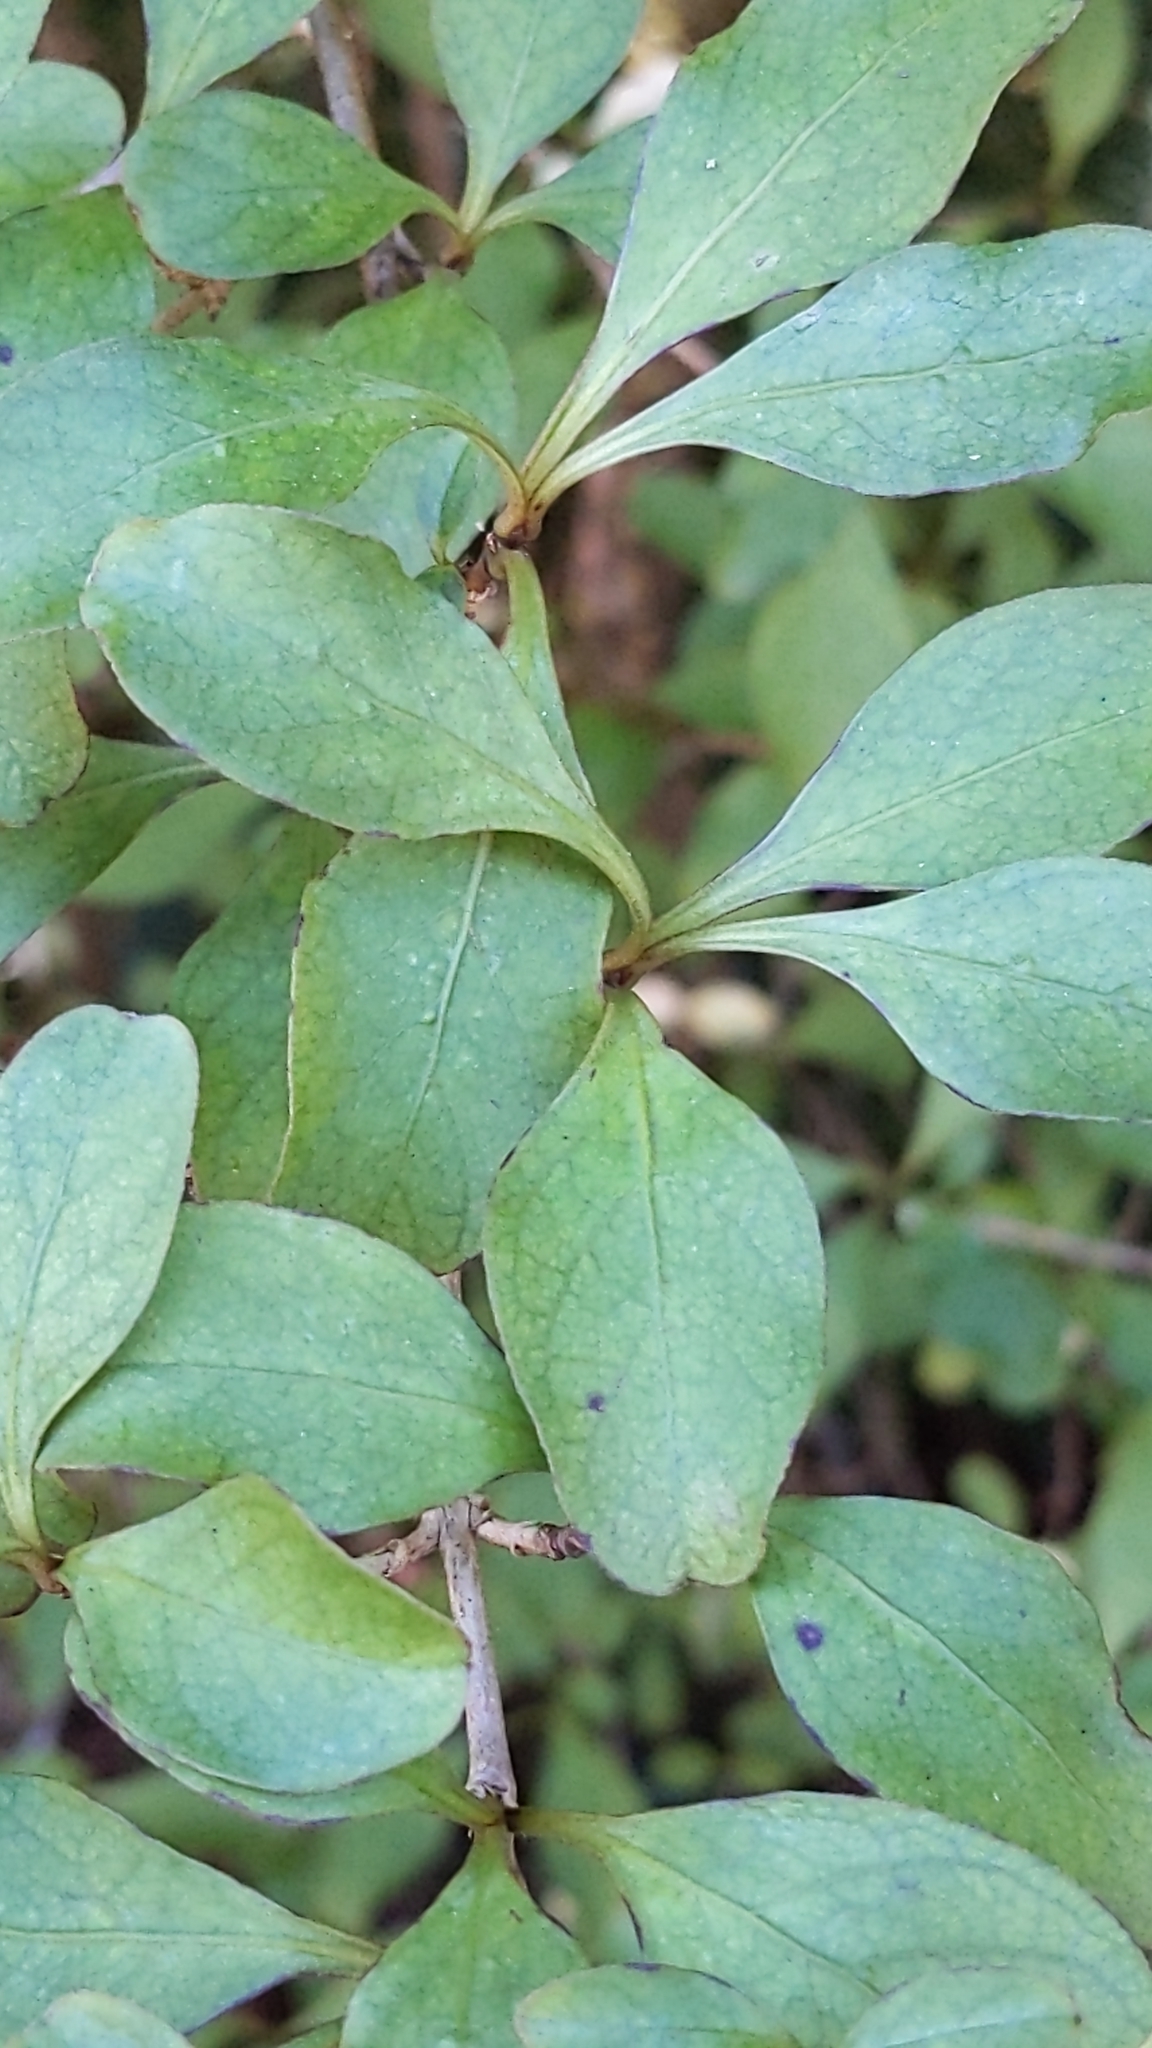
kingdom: Plantae
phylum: Tracheophyta
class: Magnoliopsida
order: Gentianales
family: Rubiaceae
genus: Coprosma
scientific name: Coprosma foetidissima
